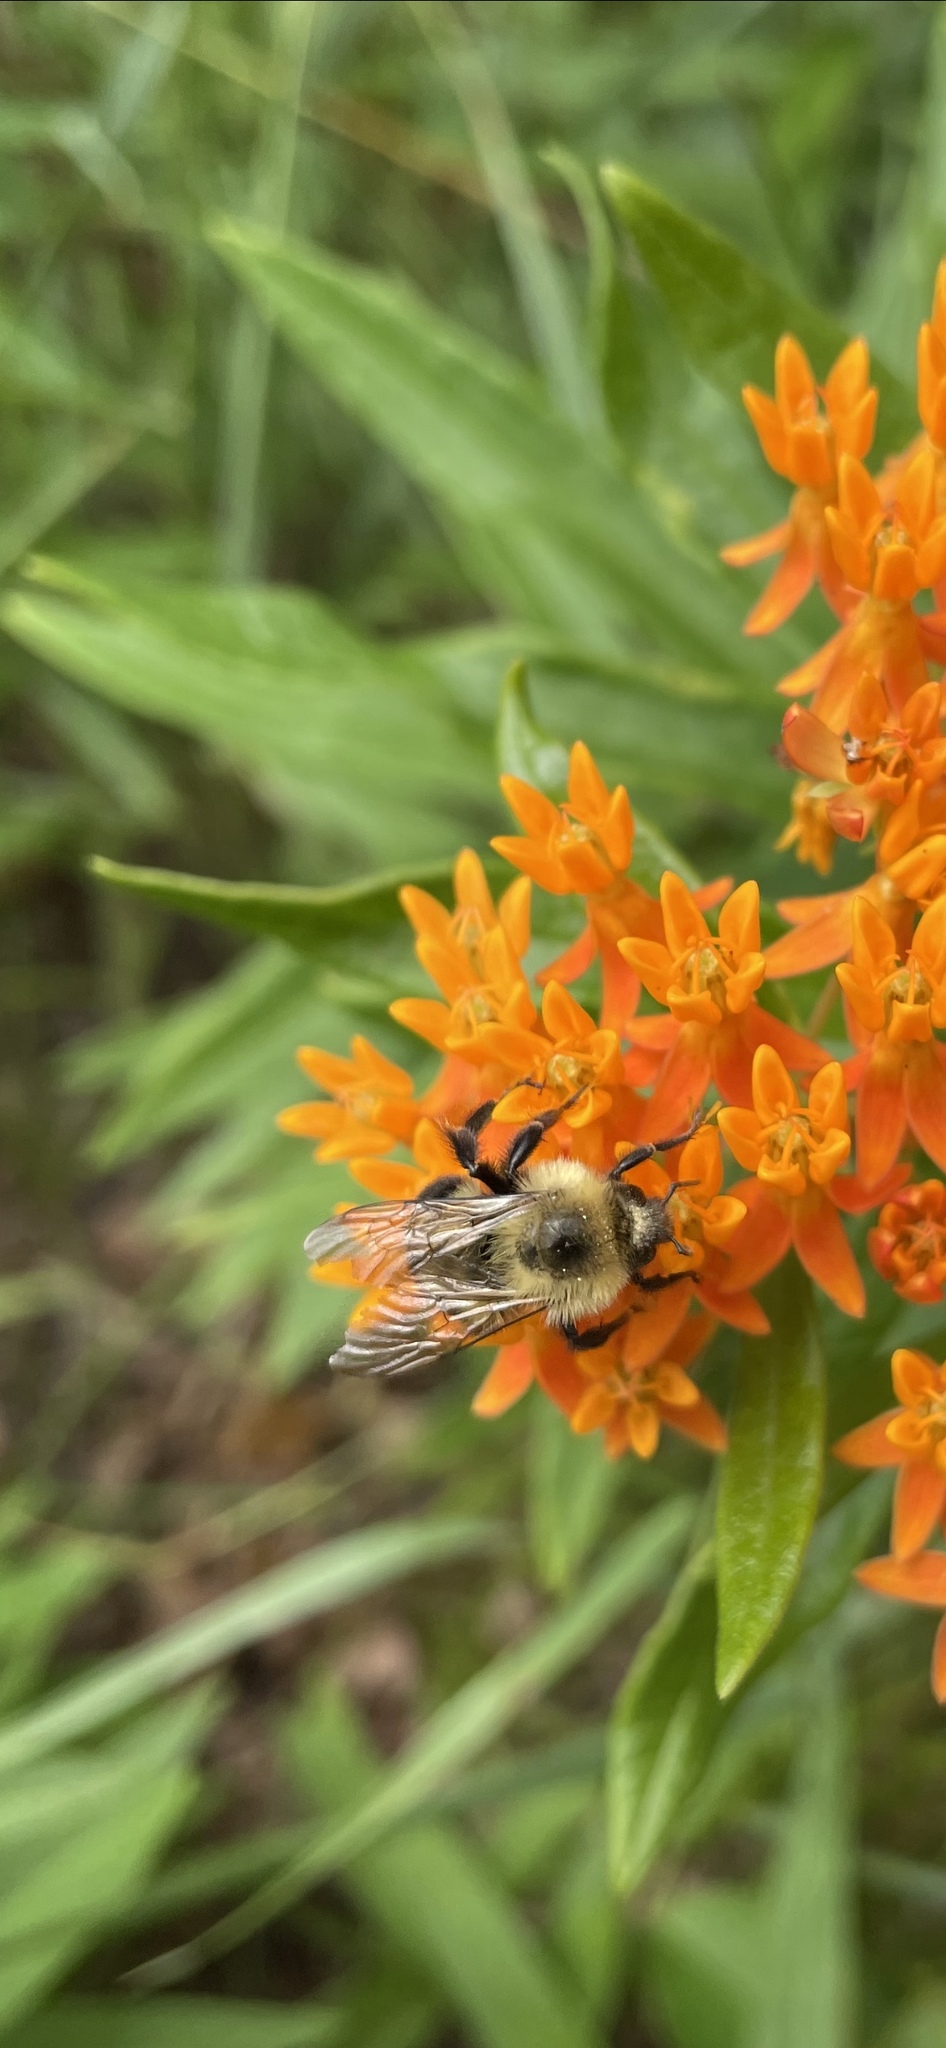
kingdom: Animalia
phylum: Arthropoda
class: Insecta
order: Hymenoptera
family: Apidae
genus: Bombus
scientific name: Bombus bimaculatus
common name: Two-spotted bumble bee
